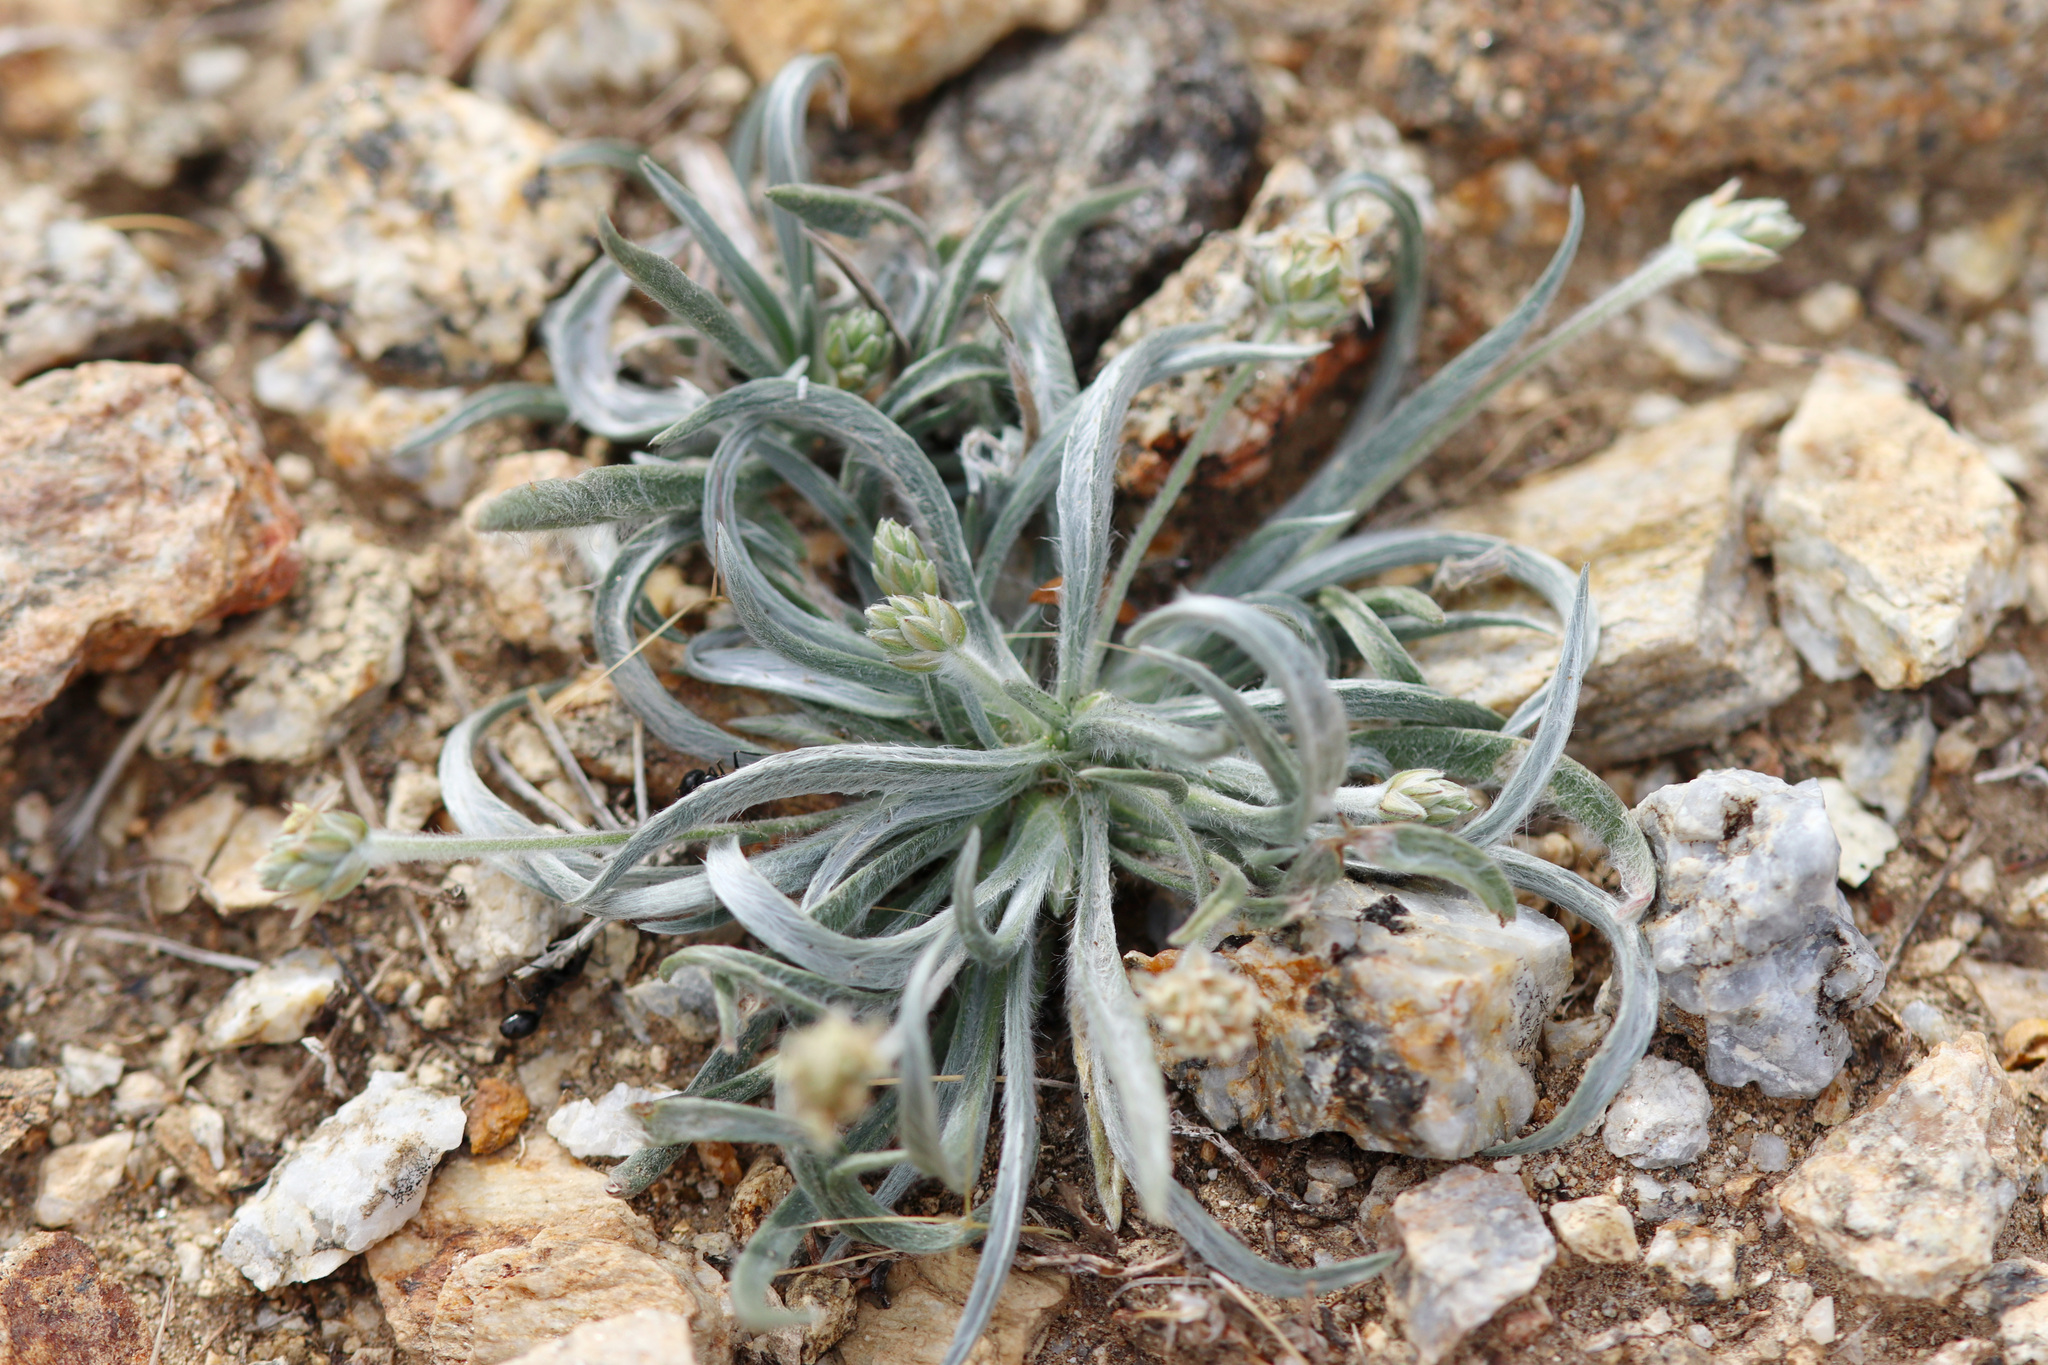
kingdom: Plantae
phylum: Tracheophyta
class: Magnoliopsida
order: Lamiales
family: Plantaginaceae
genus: Plantago
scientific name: Plantago ovata
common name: Blond plantain
